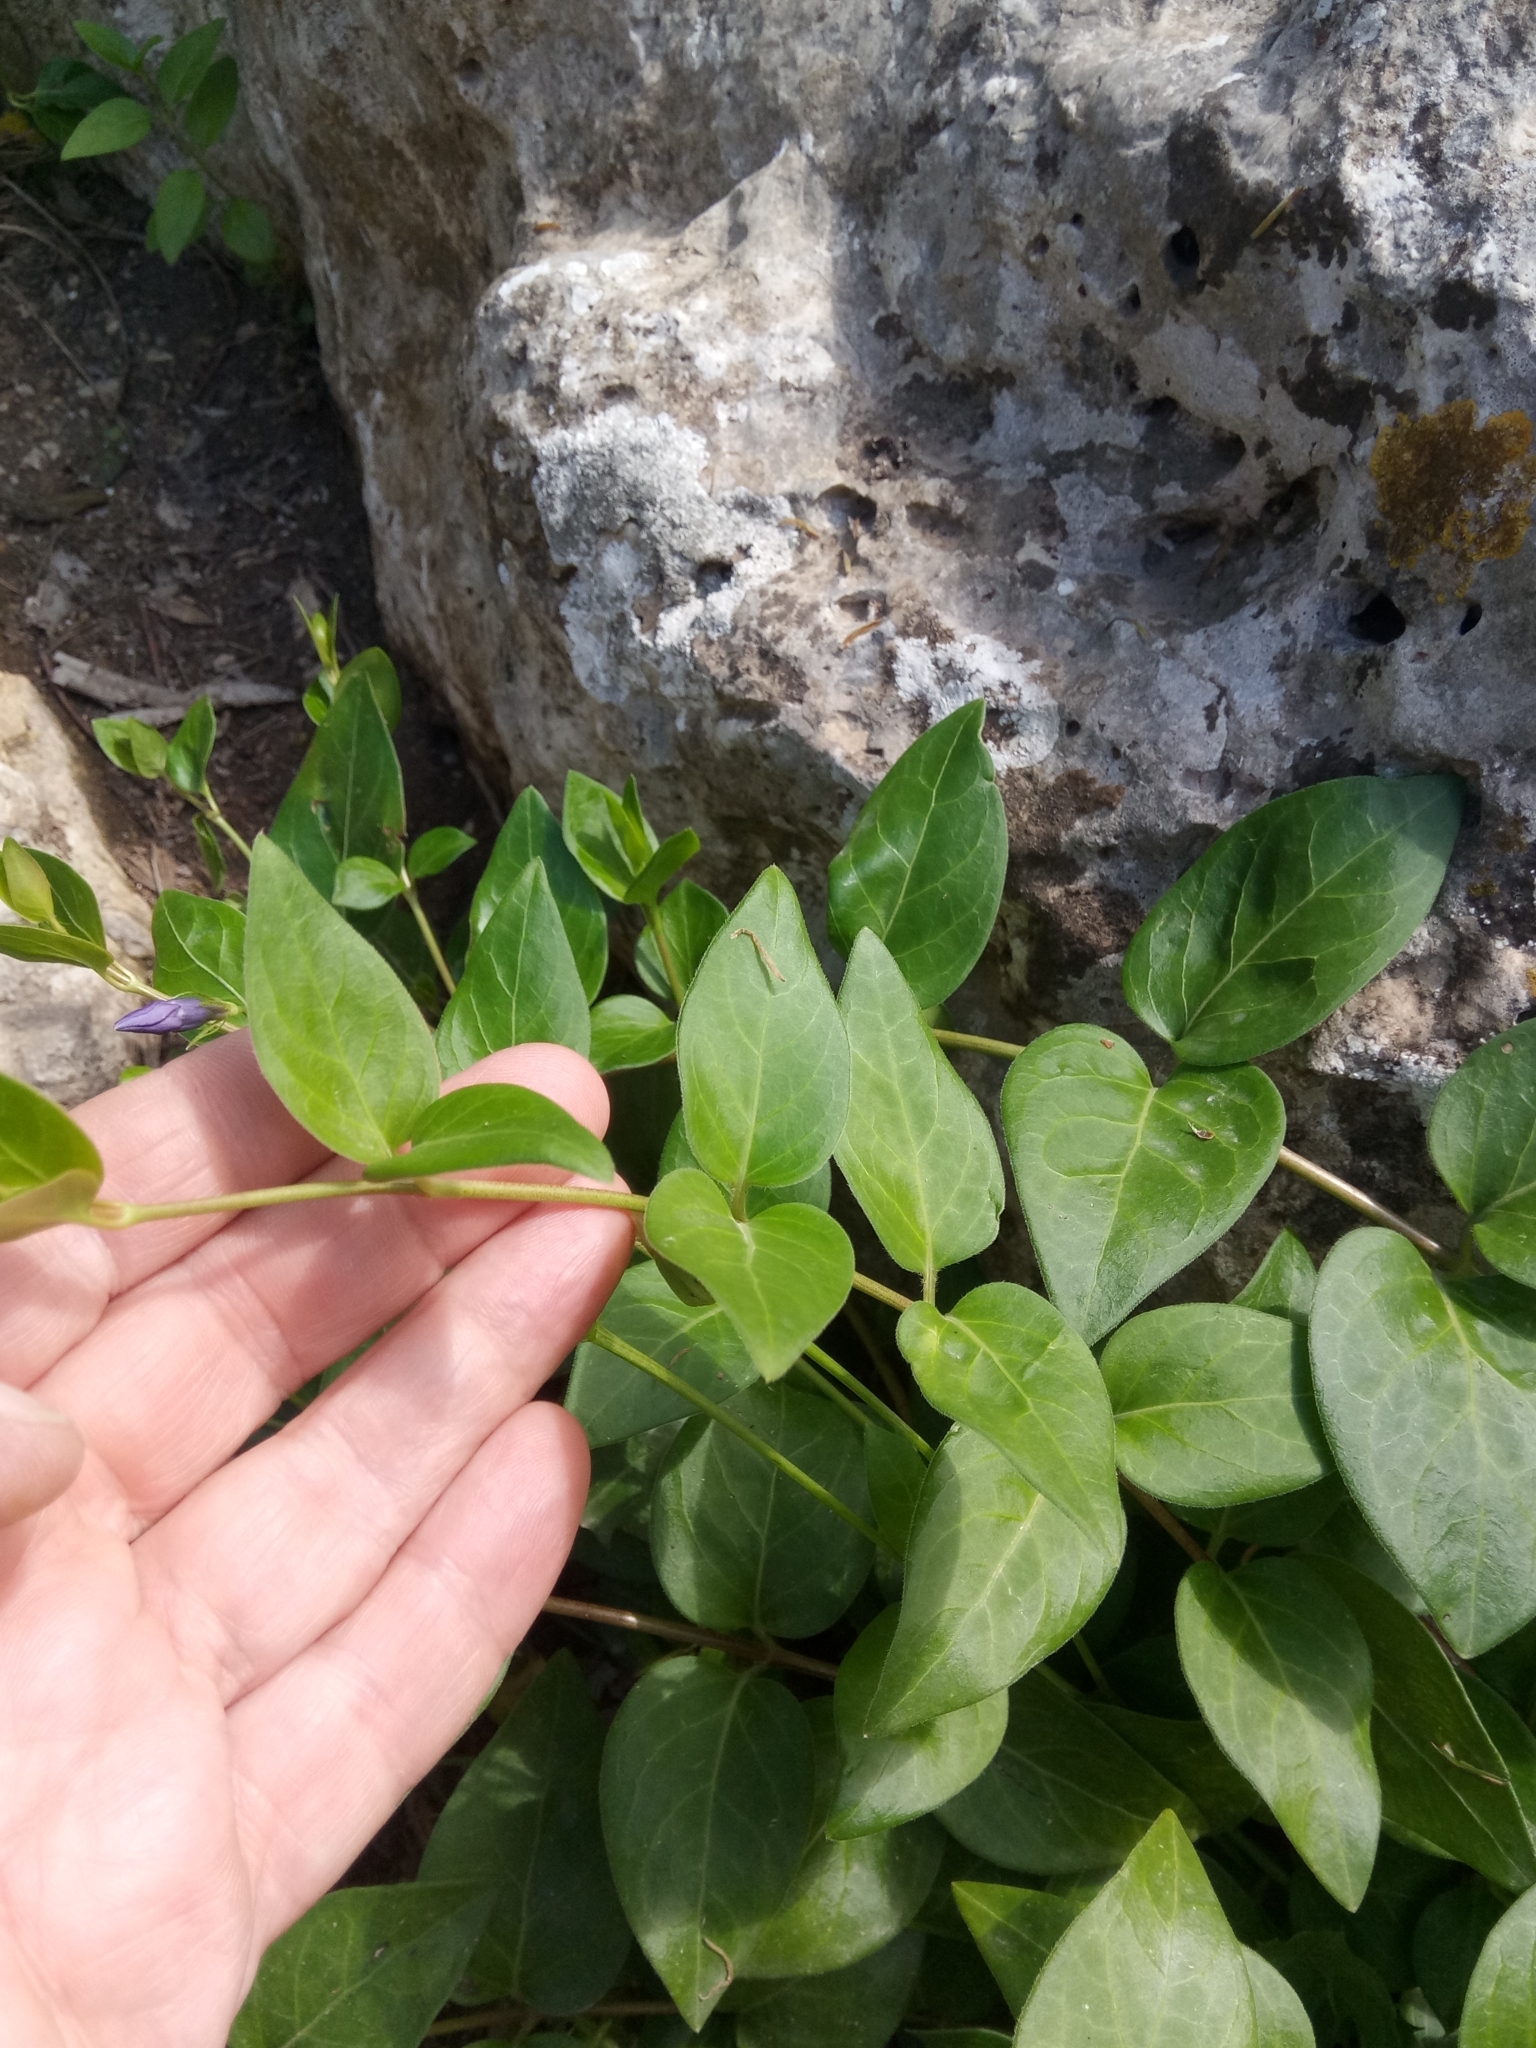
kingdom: Plantae
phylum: Tracheophyta
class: Magnoliopsida
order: Gentianales
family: Apocynaceae
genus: Vinca
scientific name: Vinca major
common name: Greater periwinkle
